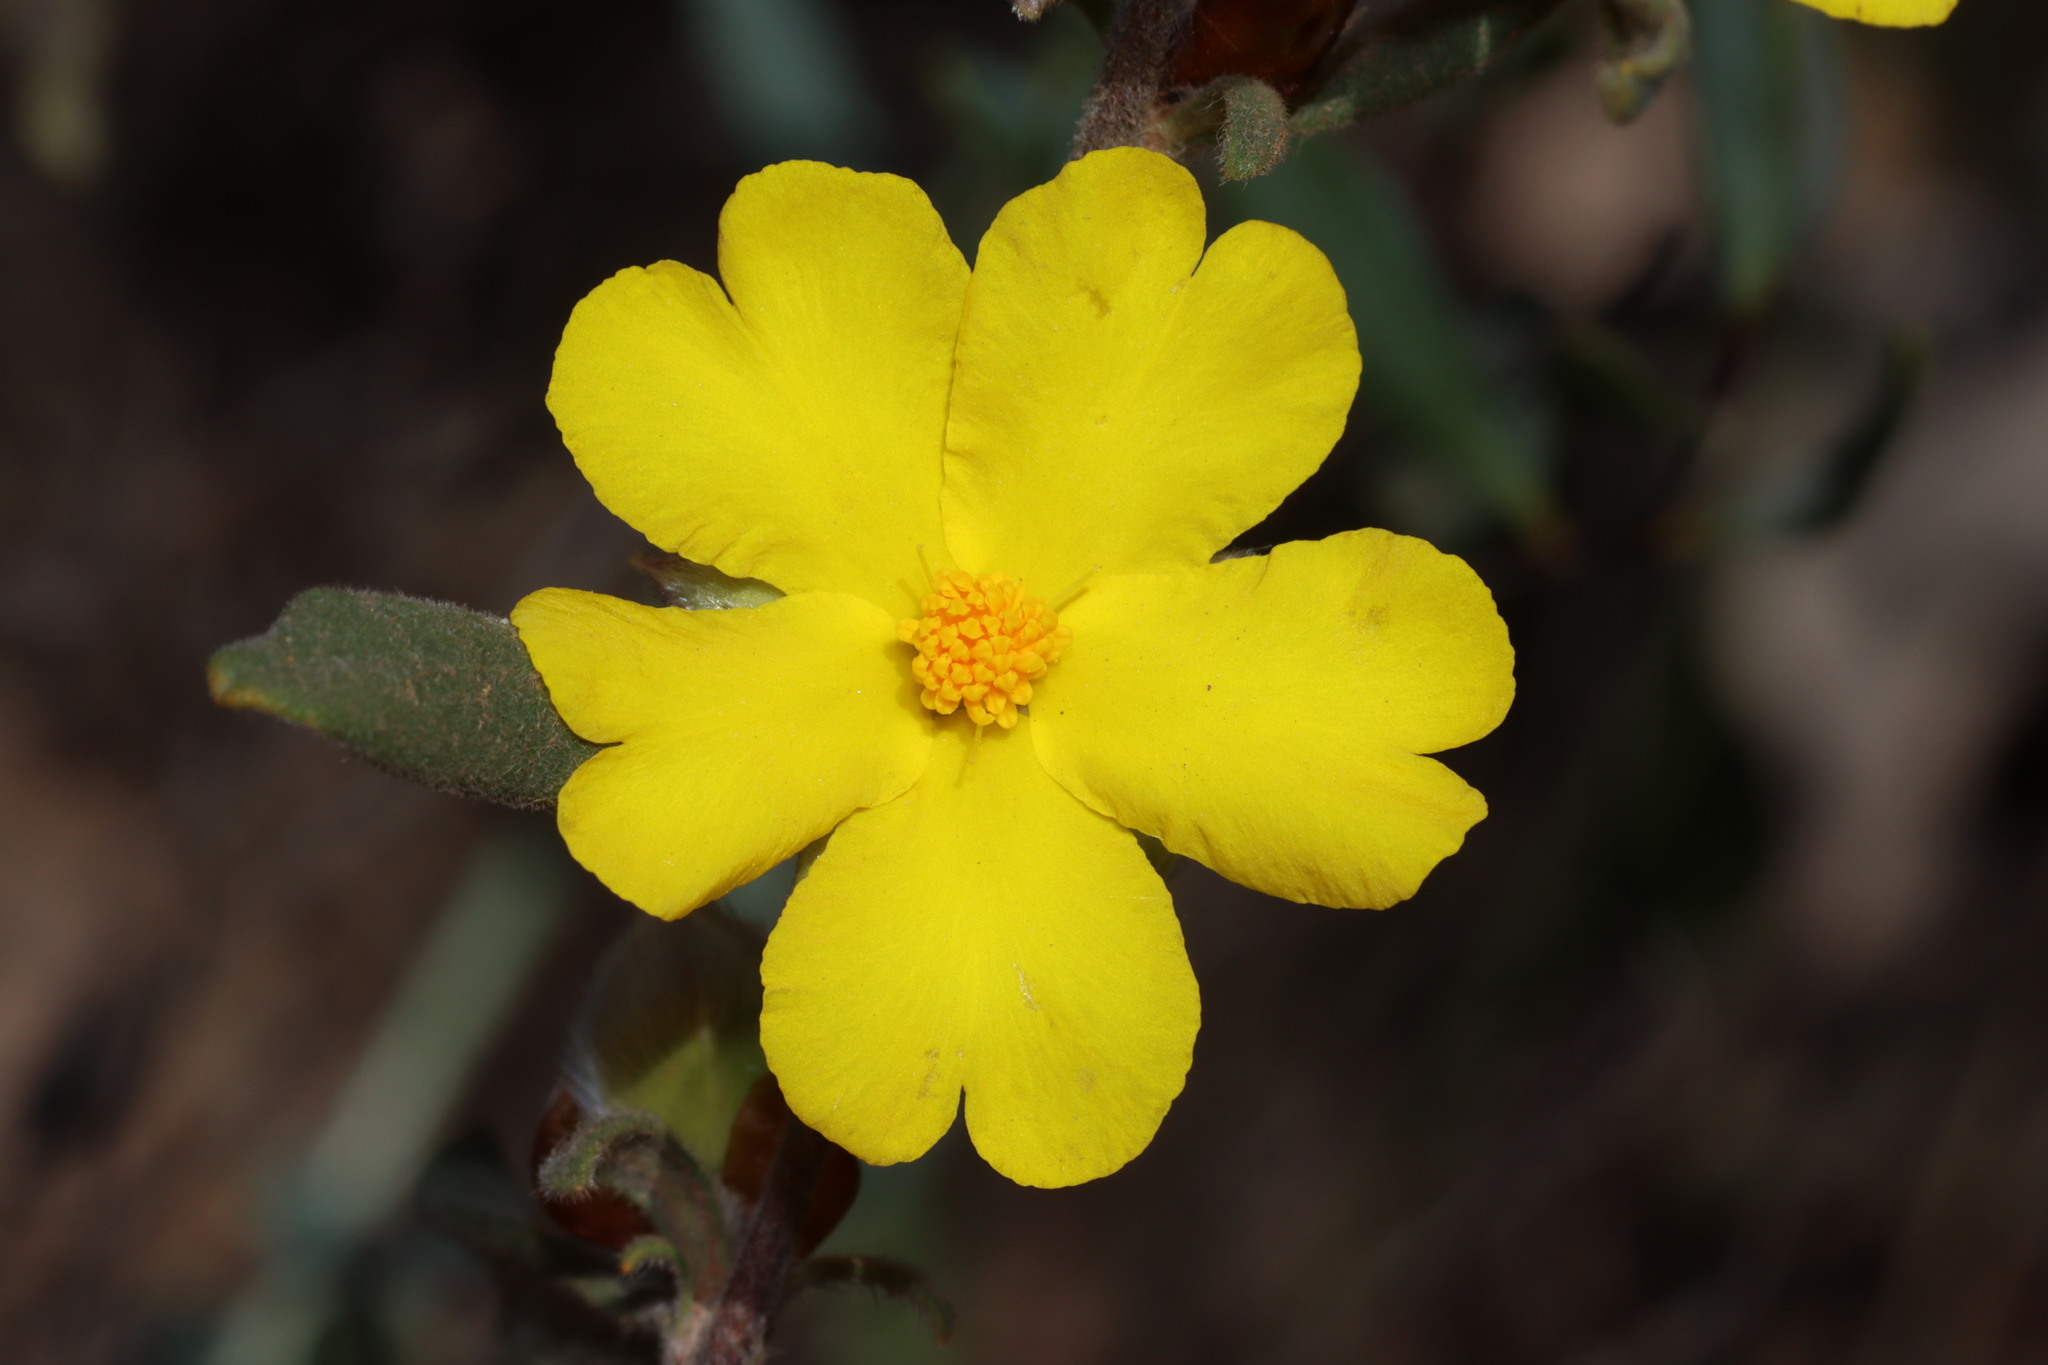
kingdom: Plantae
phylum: Tracheophyta
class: Magnoliopsida
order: Dilleniales
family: Dilleniaceae
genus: Hibbertia
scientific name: Hibbertia montana
